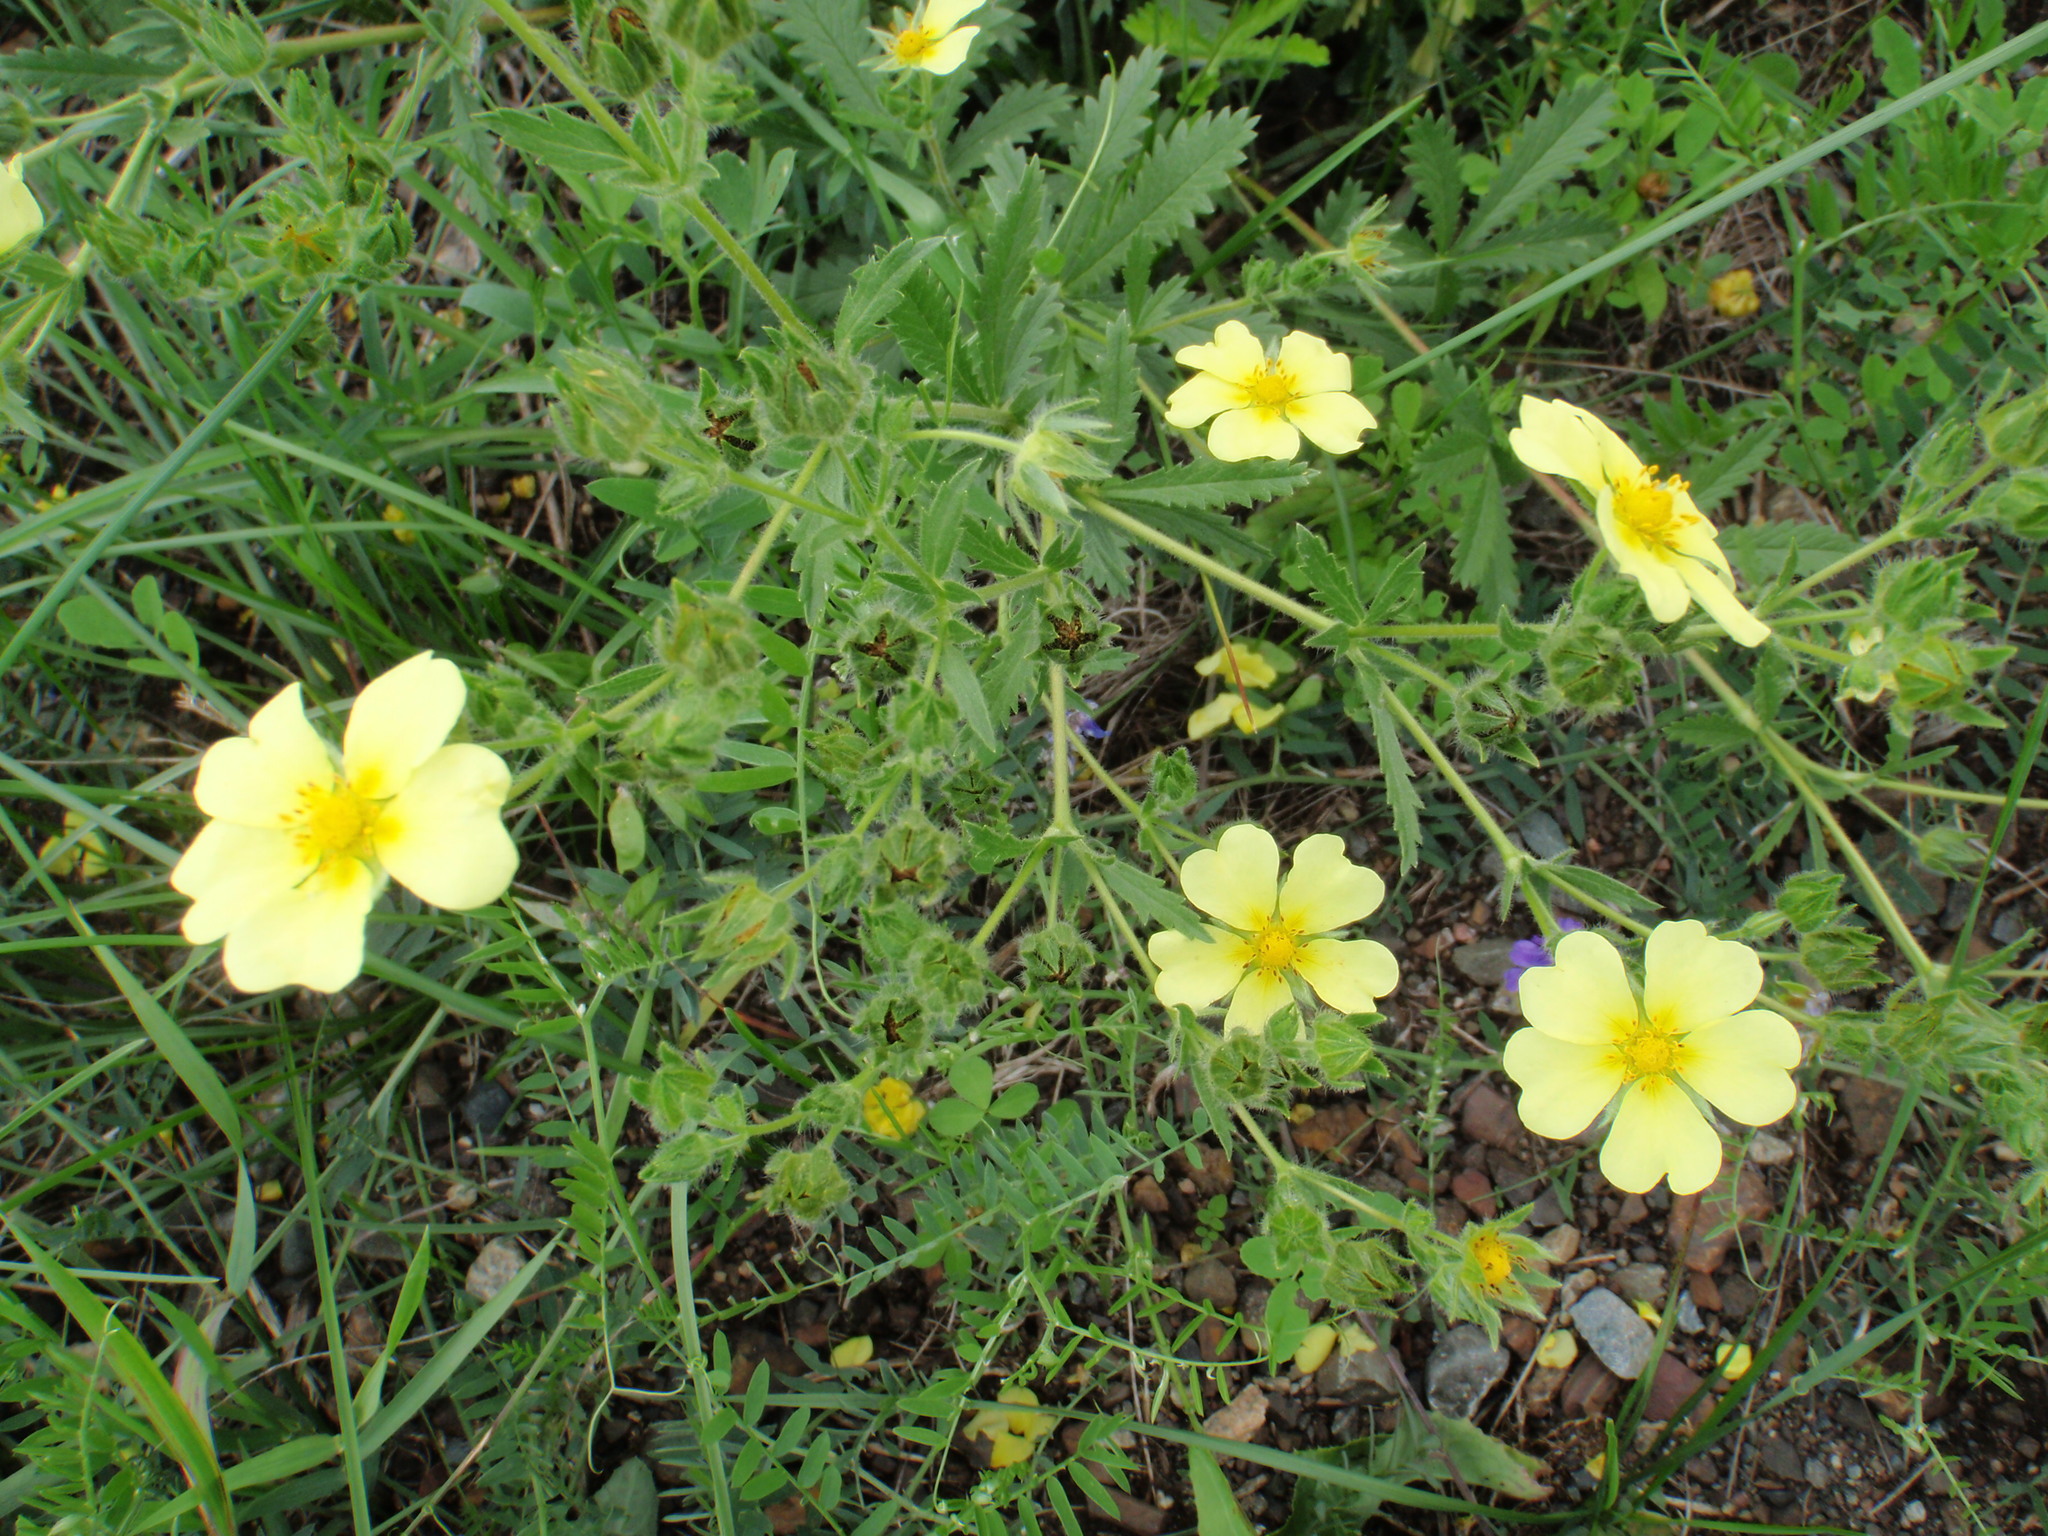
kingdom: Plantae
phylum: Tracheophyta
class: Magnoliopsida
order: Rosales
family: Rosaceae
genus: Potentilla
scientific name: Potentilla recta
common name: Sulphur cinquefoil
